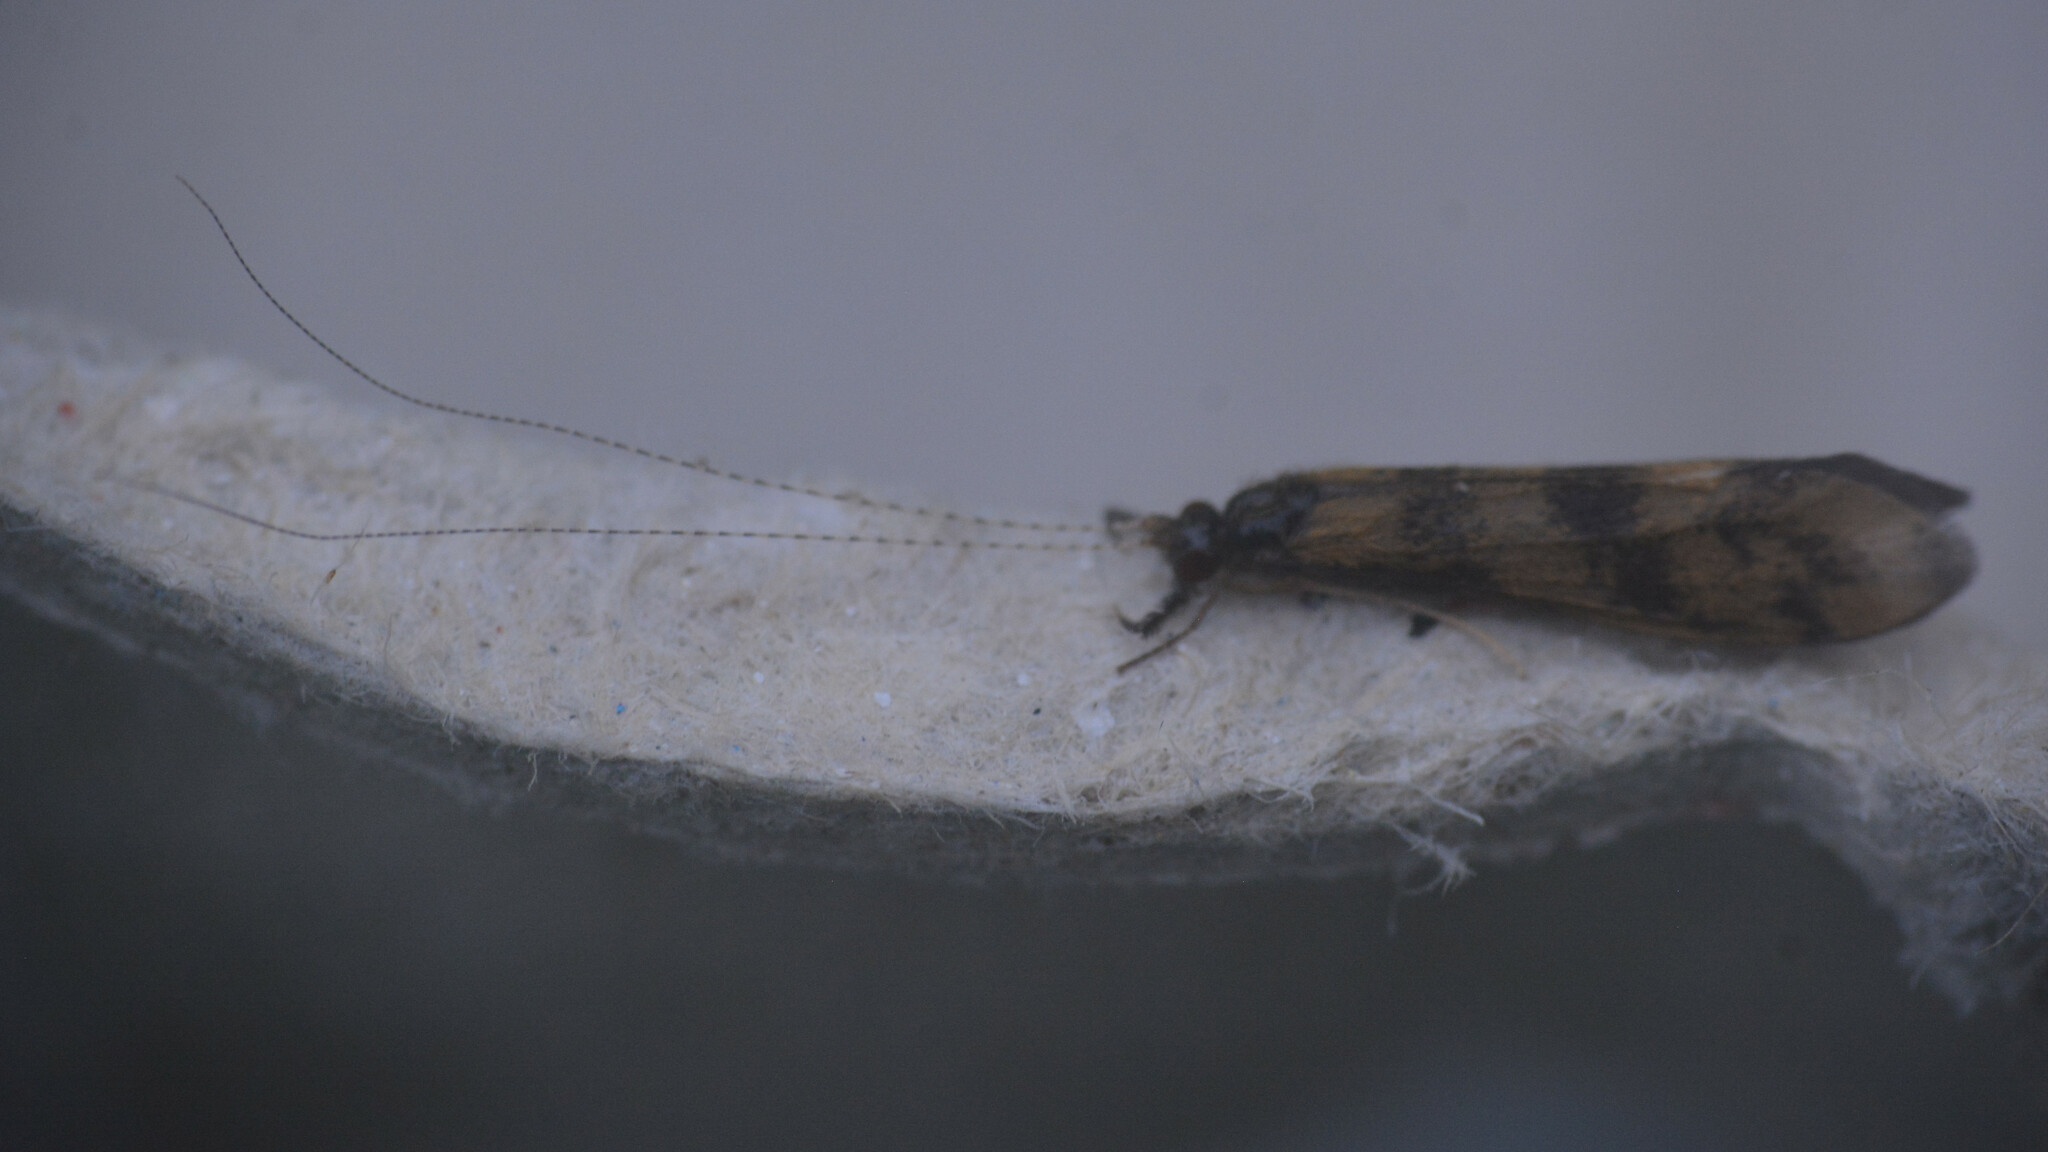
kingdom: Animalia
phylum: Arthropoda
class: Insecta
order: Trichoptera
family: Leptoceridae
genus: Mystacides
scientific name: Mystacides longicornis
